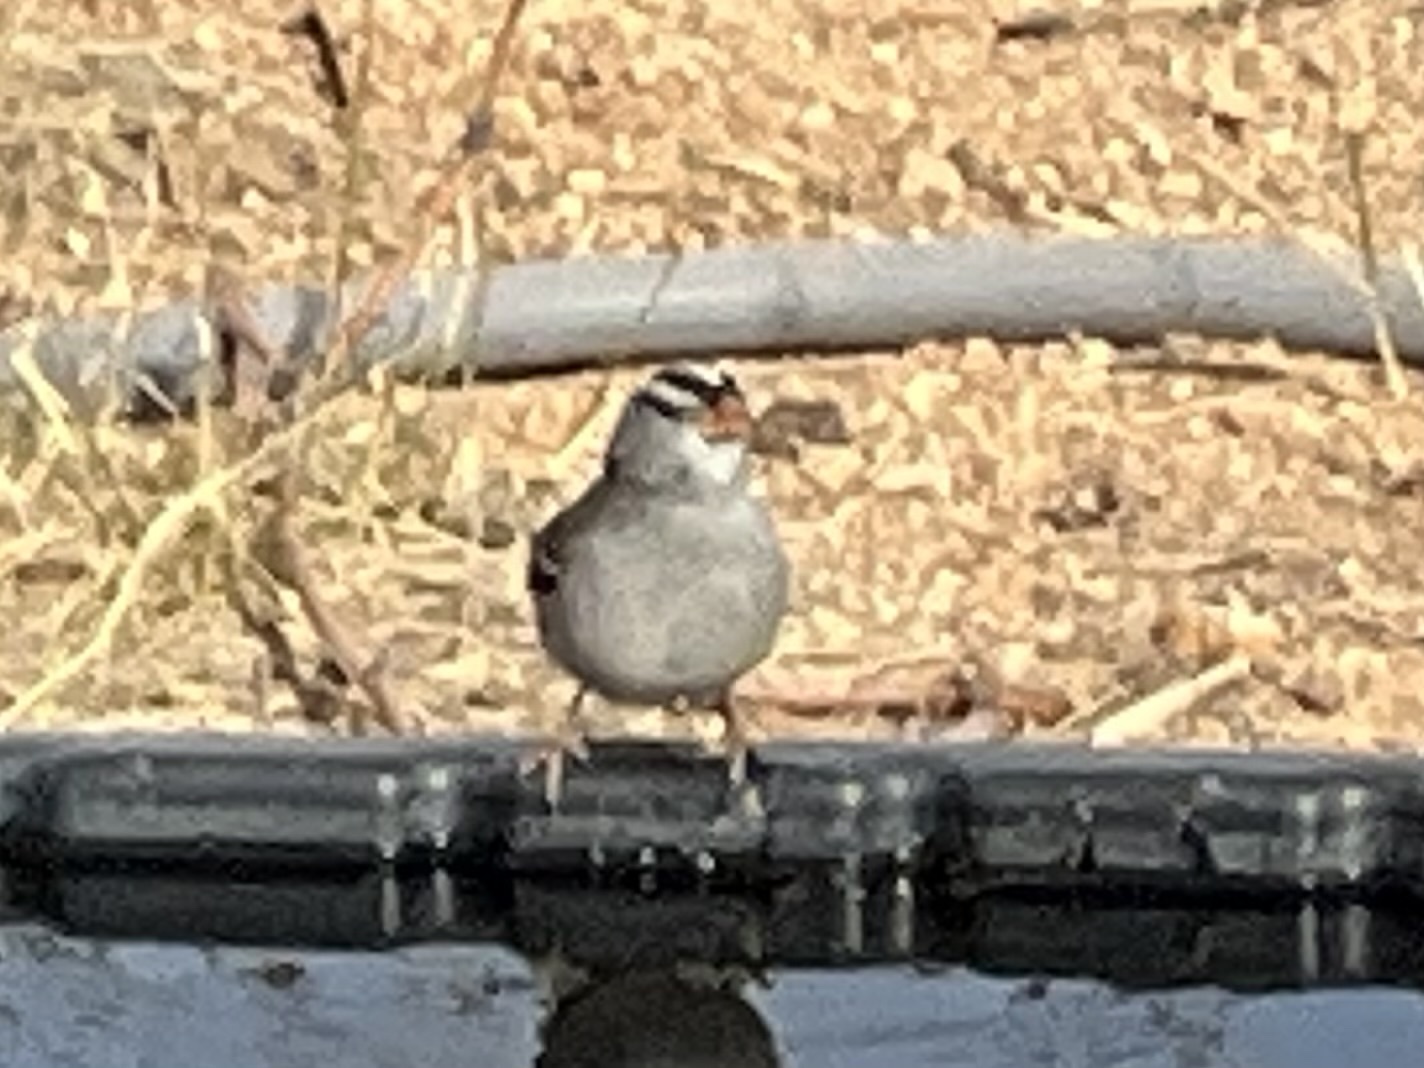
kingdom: Animalia
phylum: Chordata
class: Aves
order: Passeriformes
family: Passerellidae
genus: Zonotrichia
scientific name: Zonotrichia leucophrys
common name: White-crowned sparrow
